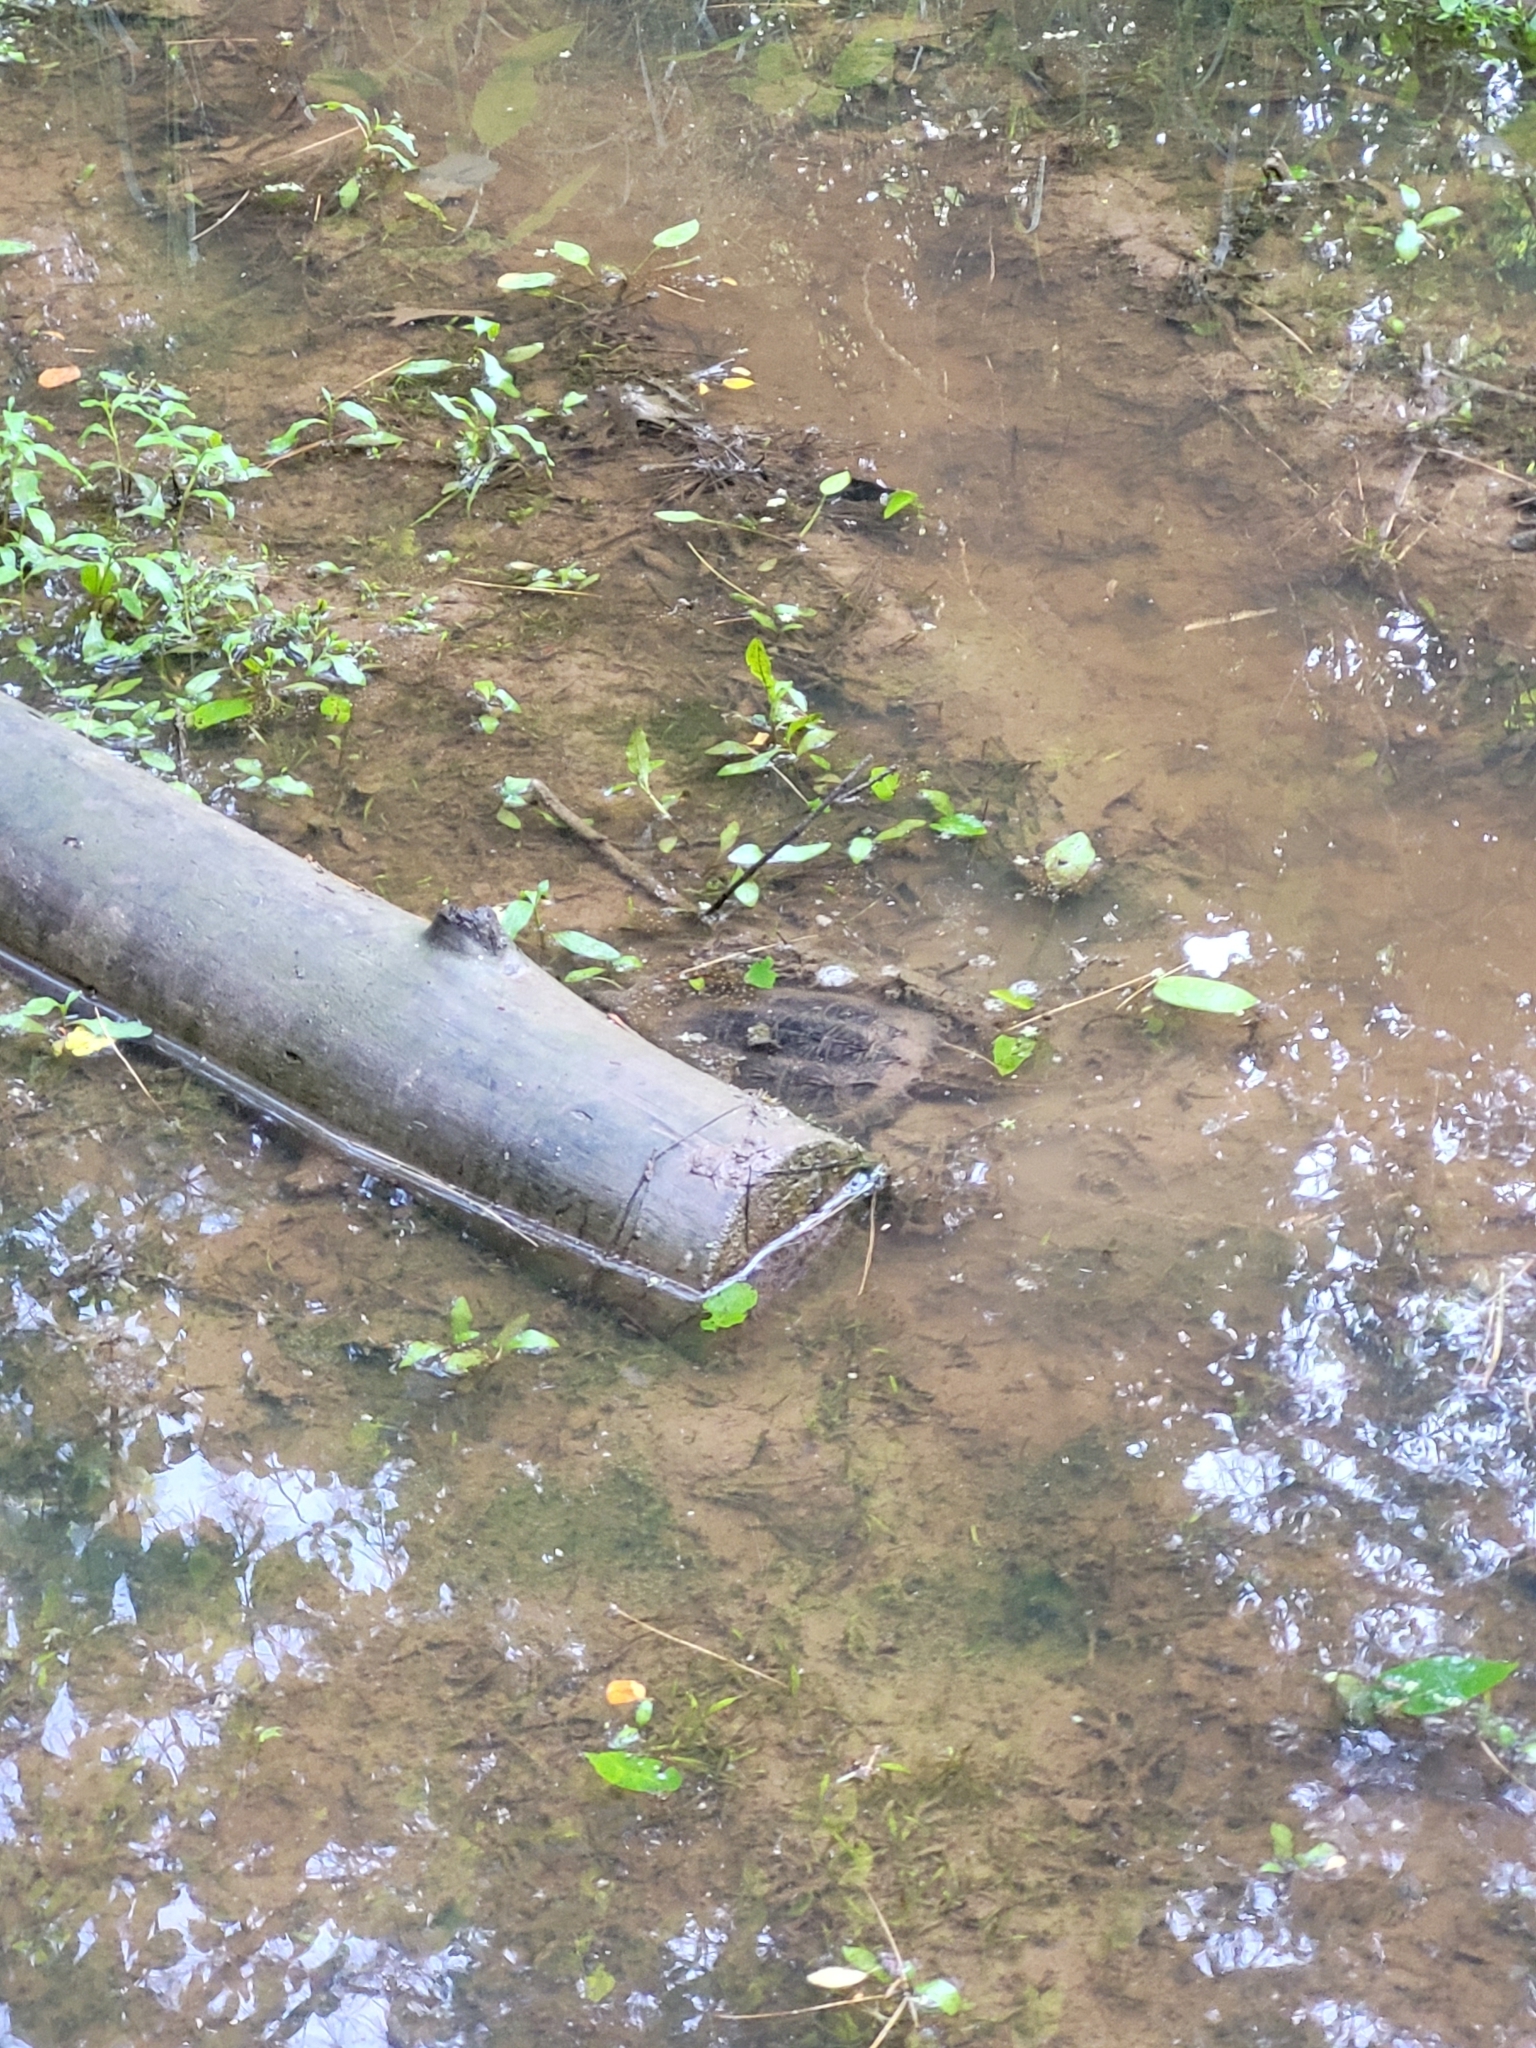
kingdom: Animalia
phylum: Chordata
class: Testudines
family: Chelydridae
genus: Chelydra
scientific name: Chelydra serpentina
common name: Common snapping turtle
